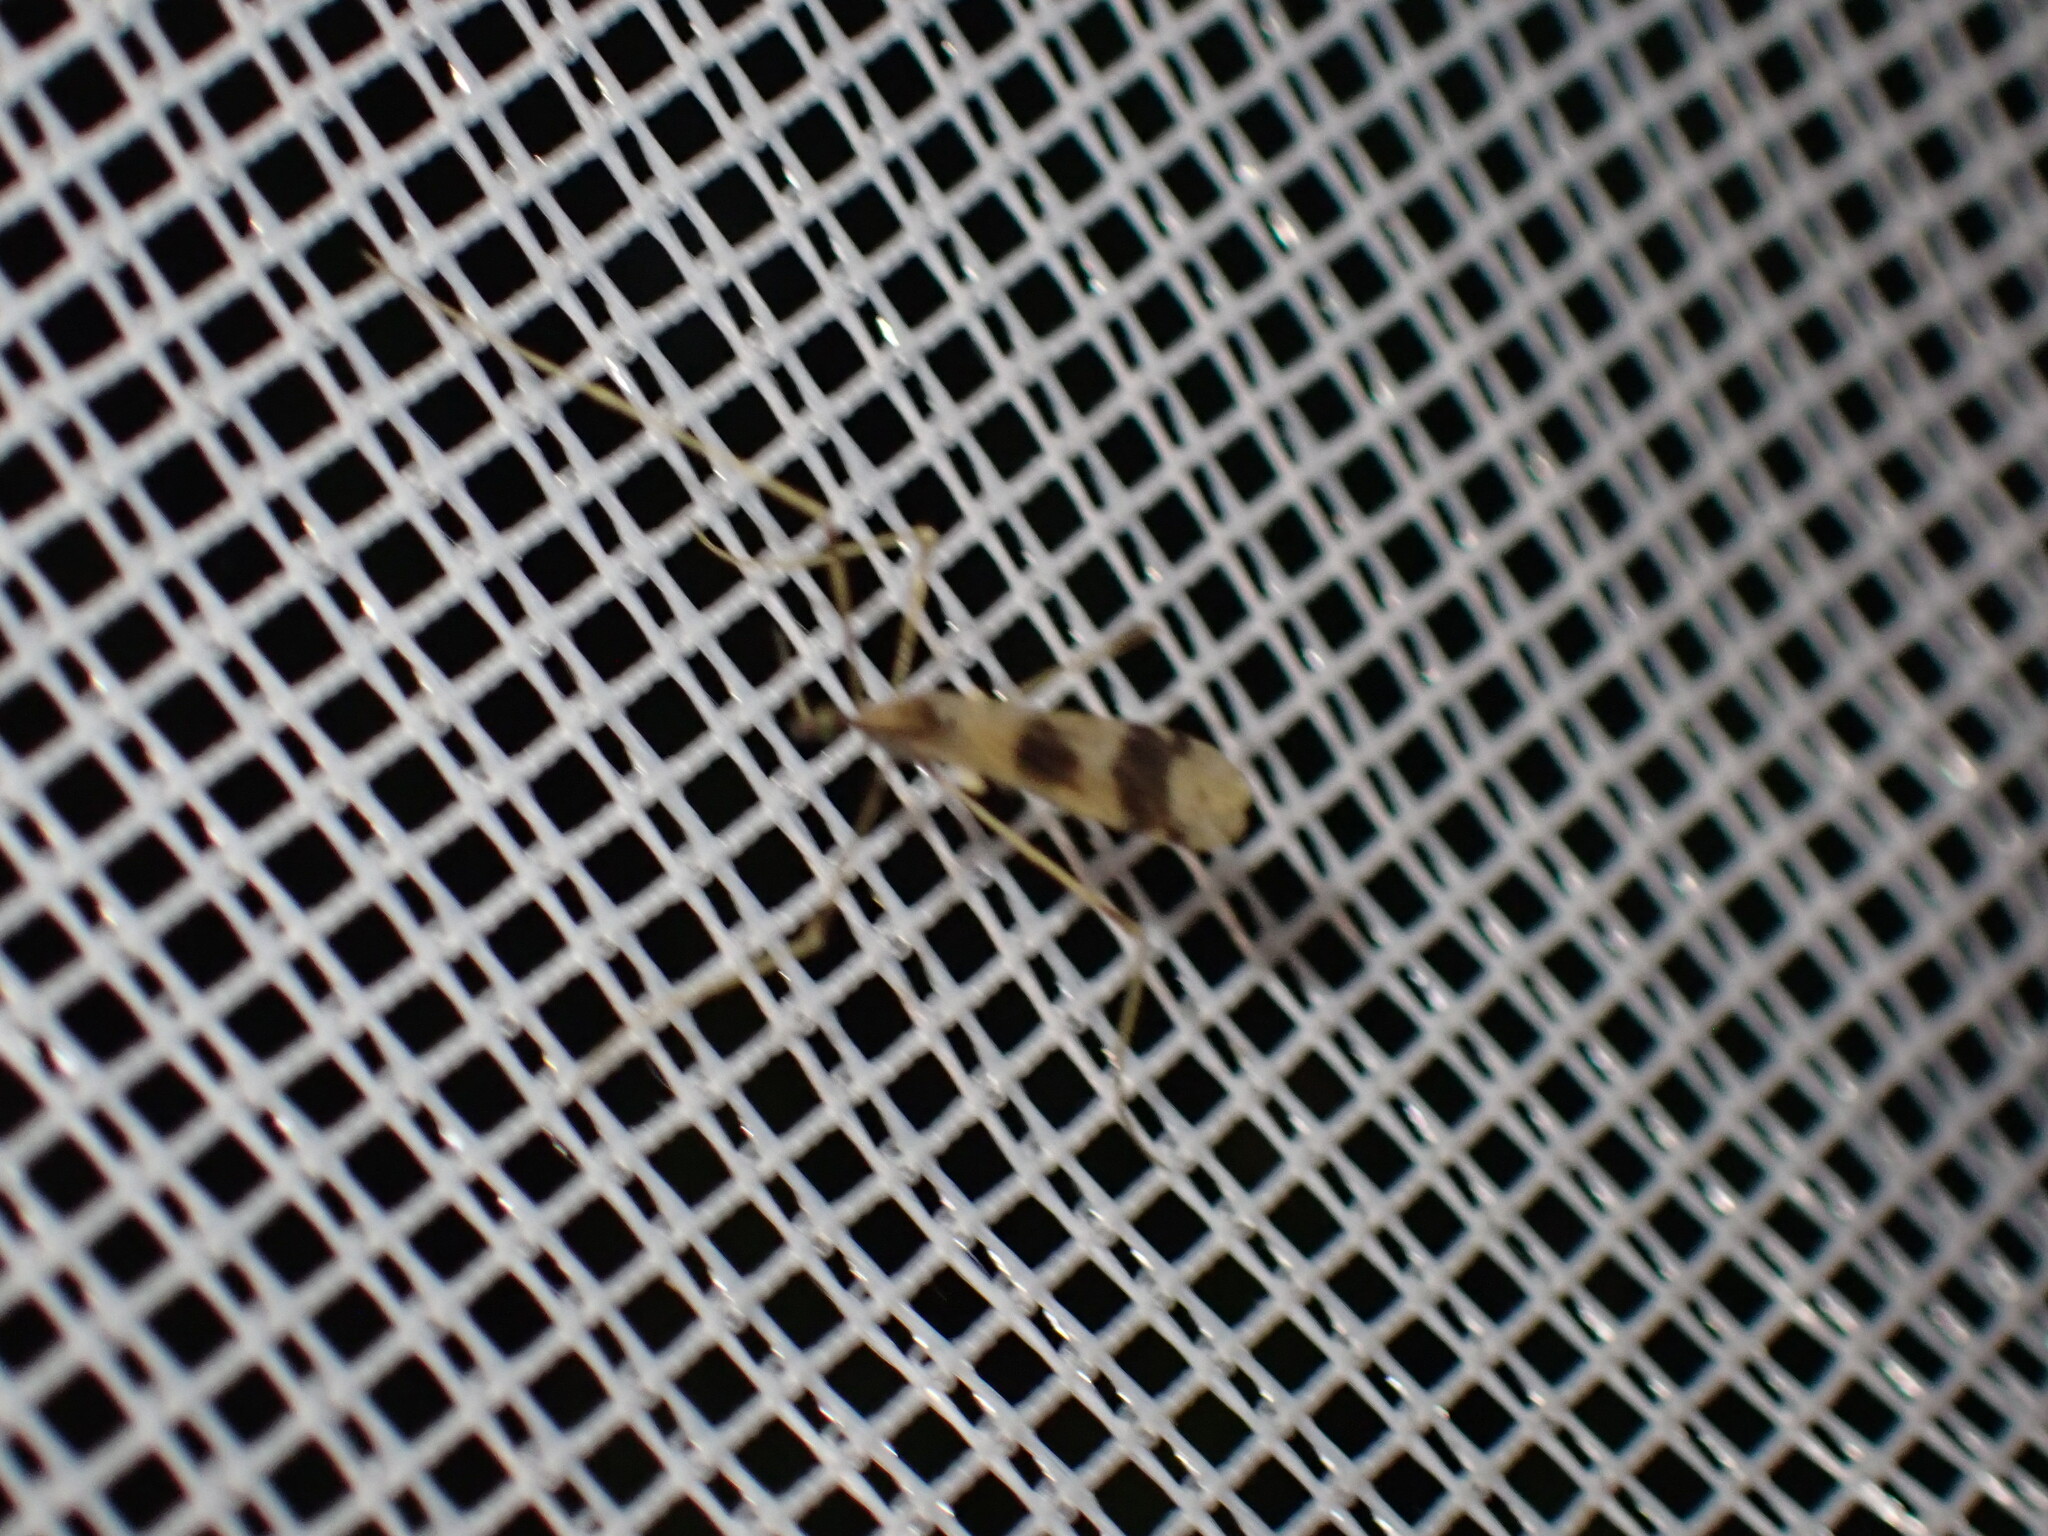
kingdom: Animalia
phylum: Arthropoda
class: Insecta
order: Diptera
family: Limoniidae
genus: Ilisia
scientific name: Ilisia venusta
